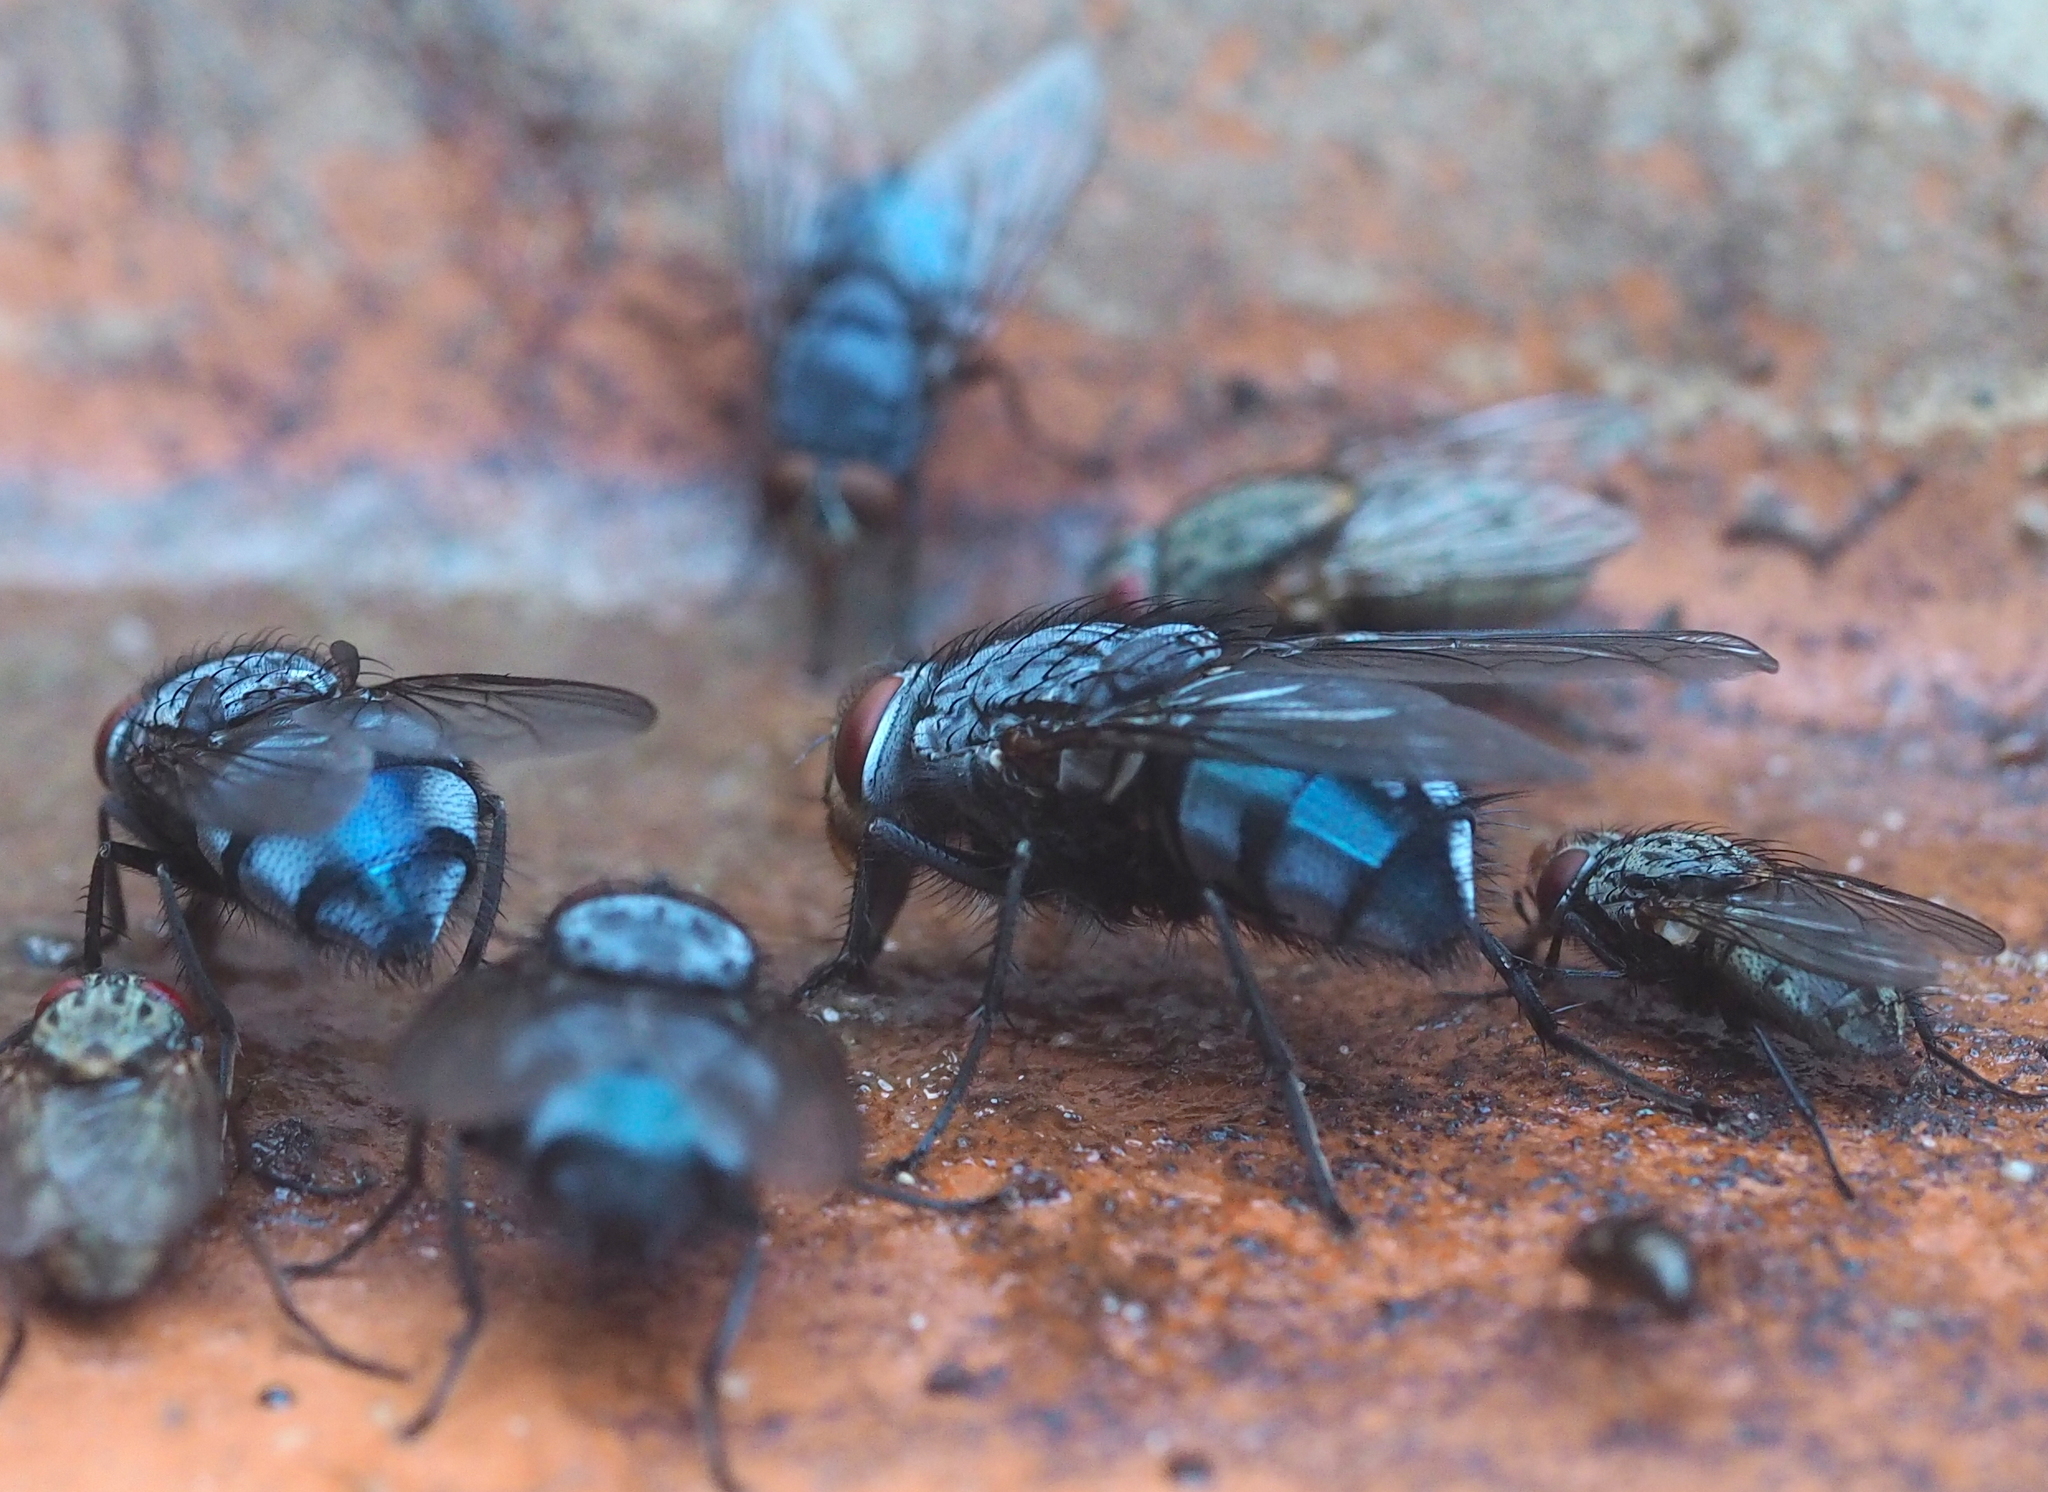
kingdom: Animalia
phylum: Arthropoda
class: Insecta
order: Diptera
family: Calliphoridae
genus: Calliphora
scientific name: Calliphora vicina
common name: Common blow flie
